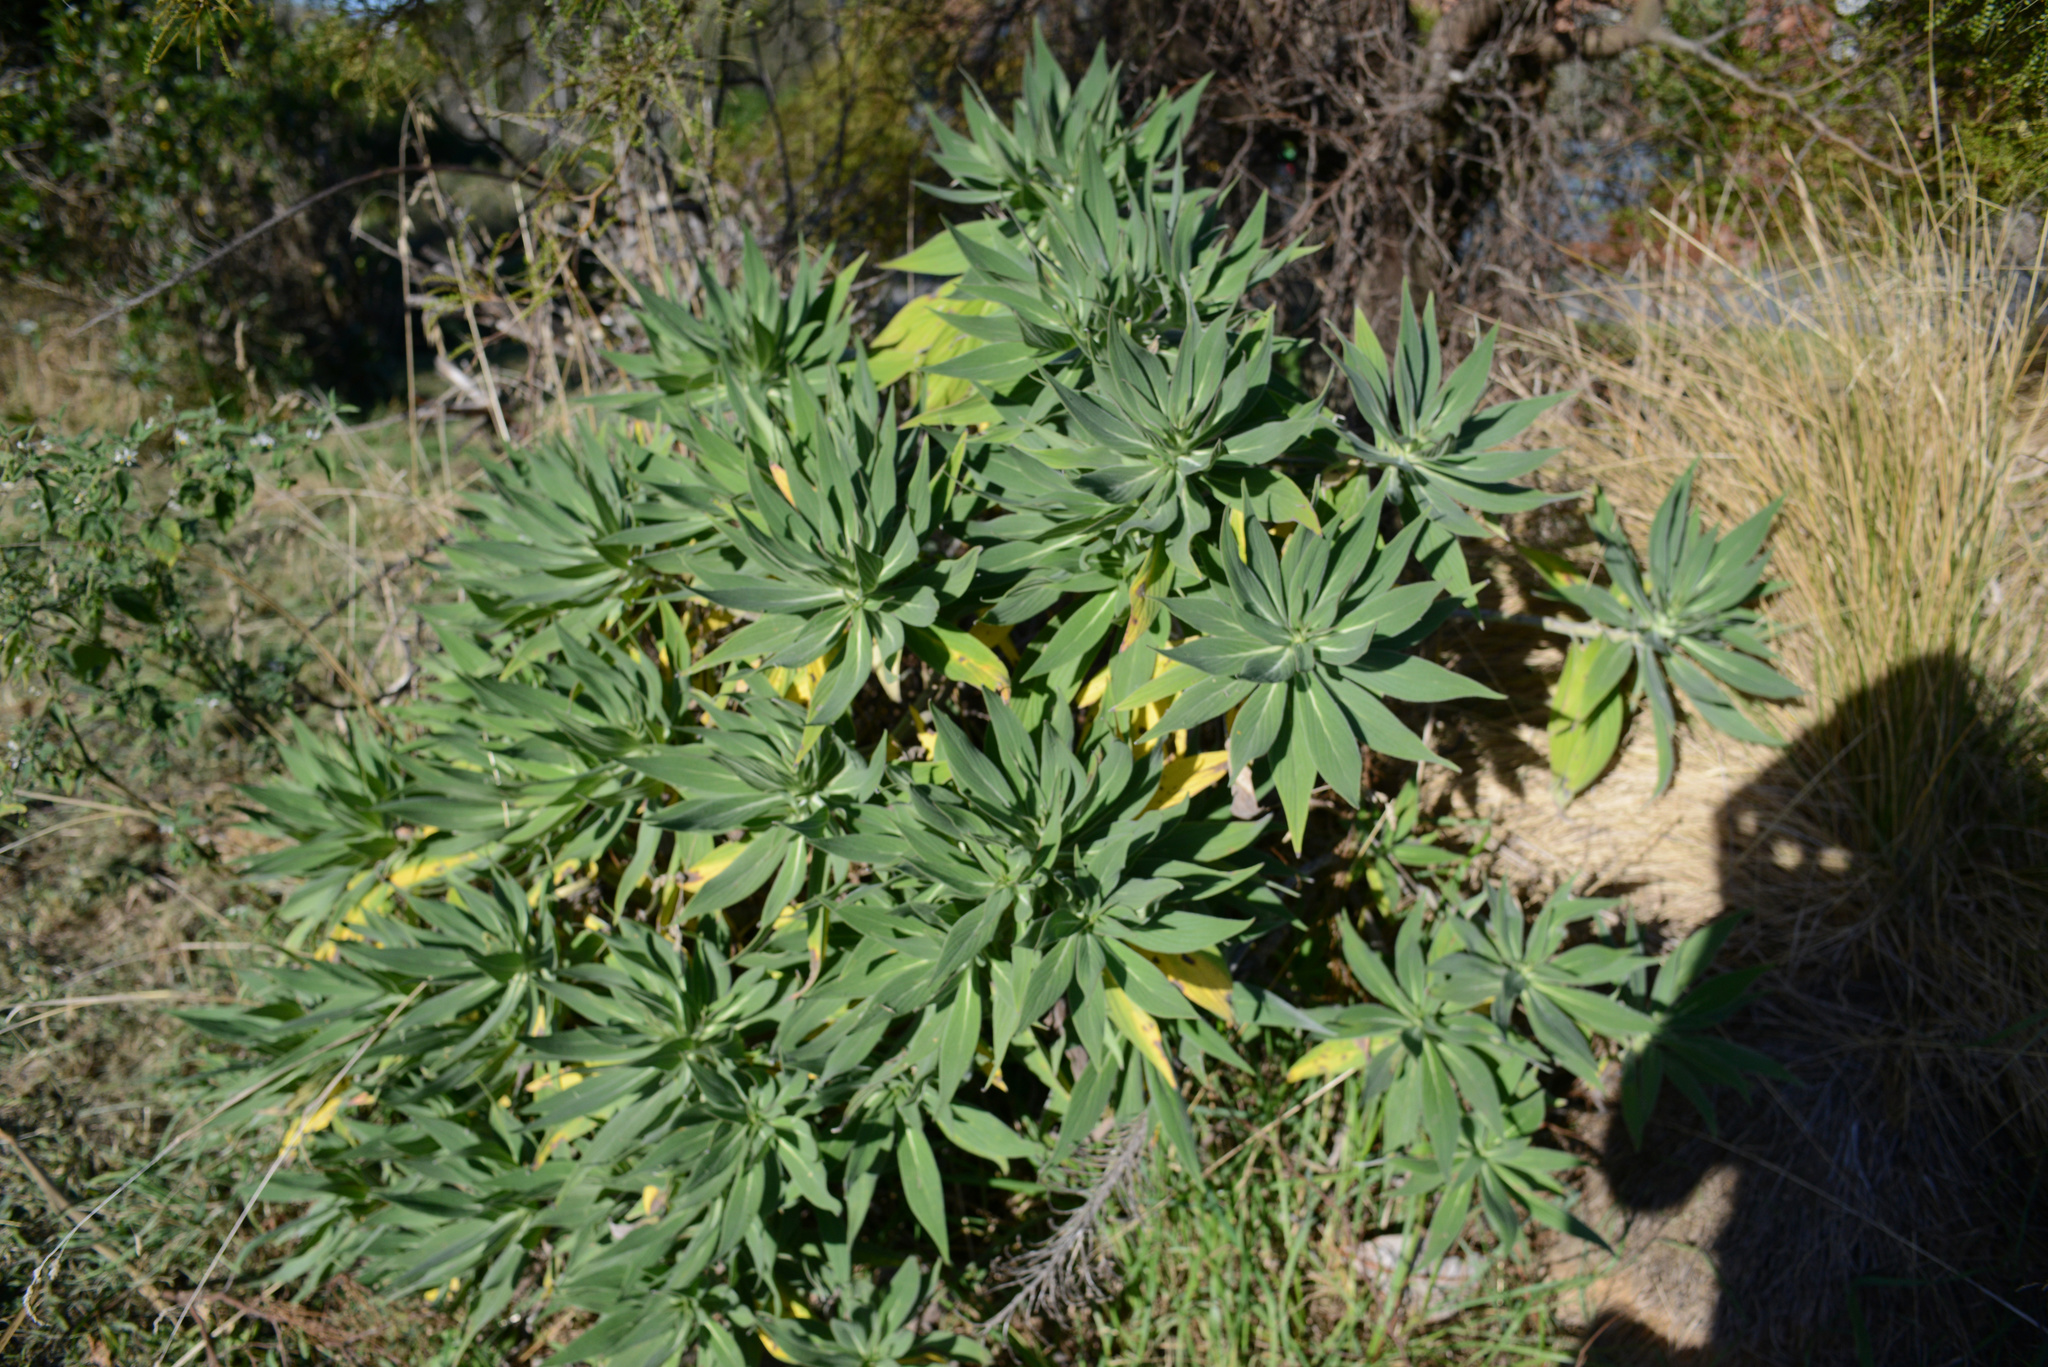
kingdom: Plantae
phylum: Tracheophyta
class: Magnoliopsida
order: Boraginales
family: Boraginaceae
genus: Echium
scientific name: Echium candicans
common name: Pride of madeira
